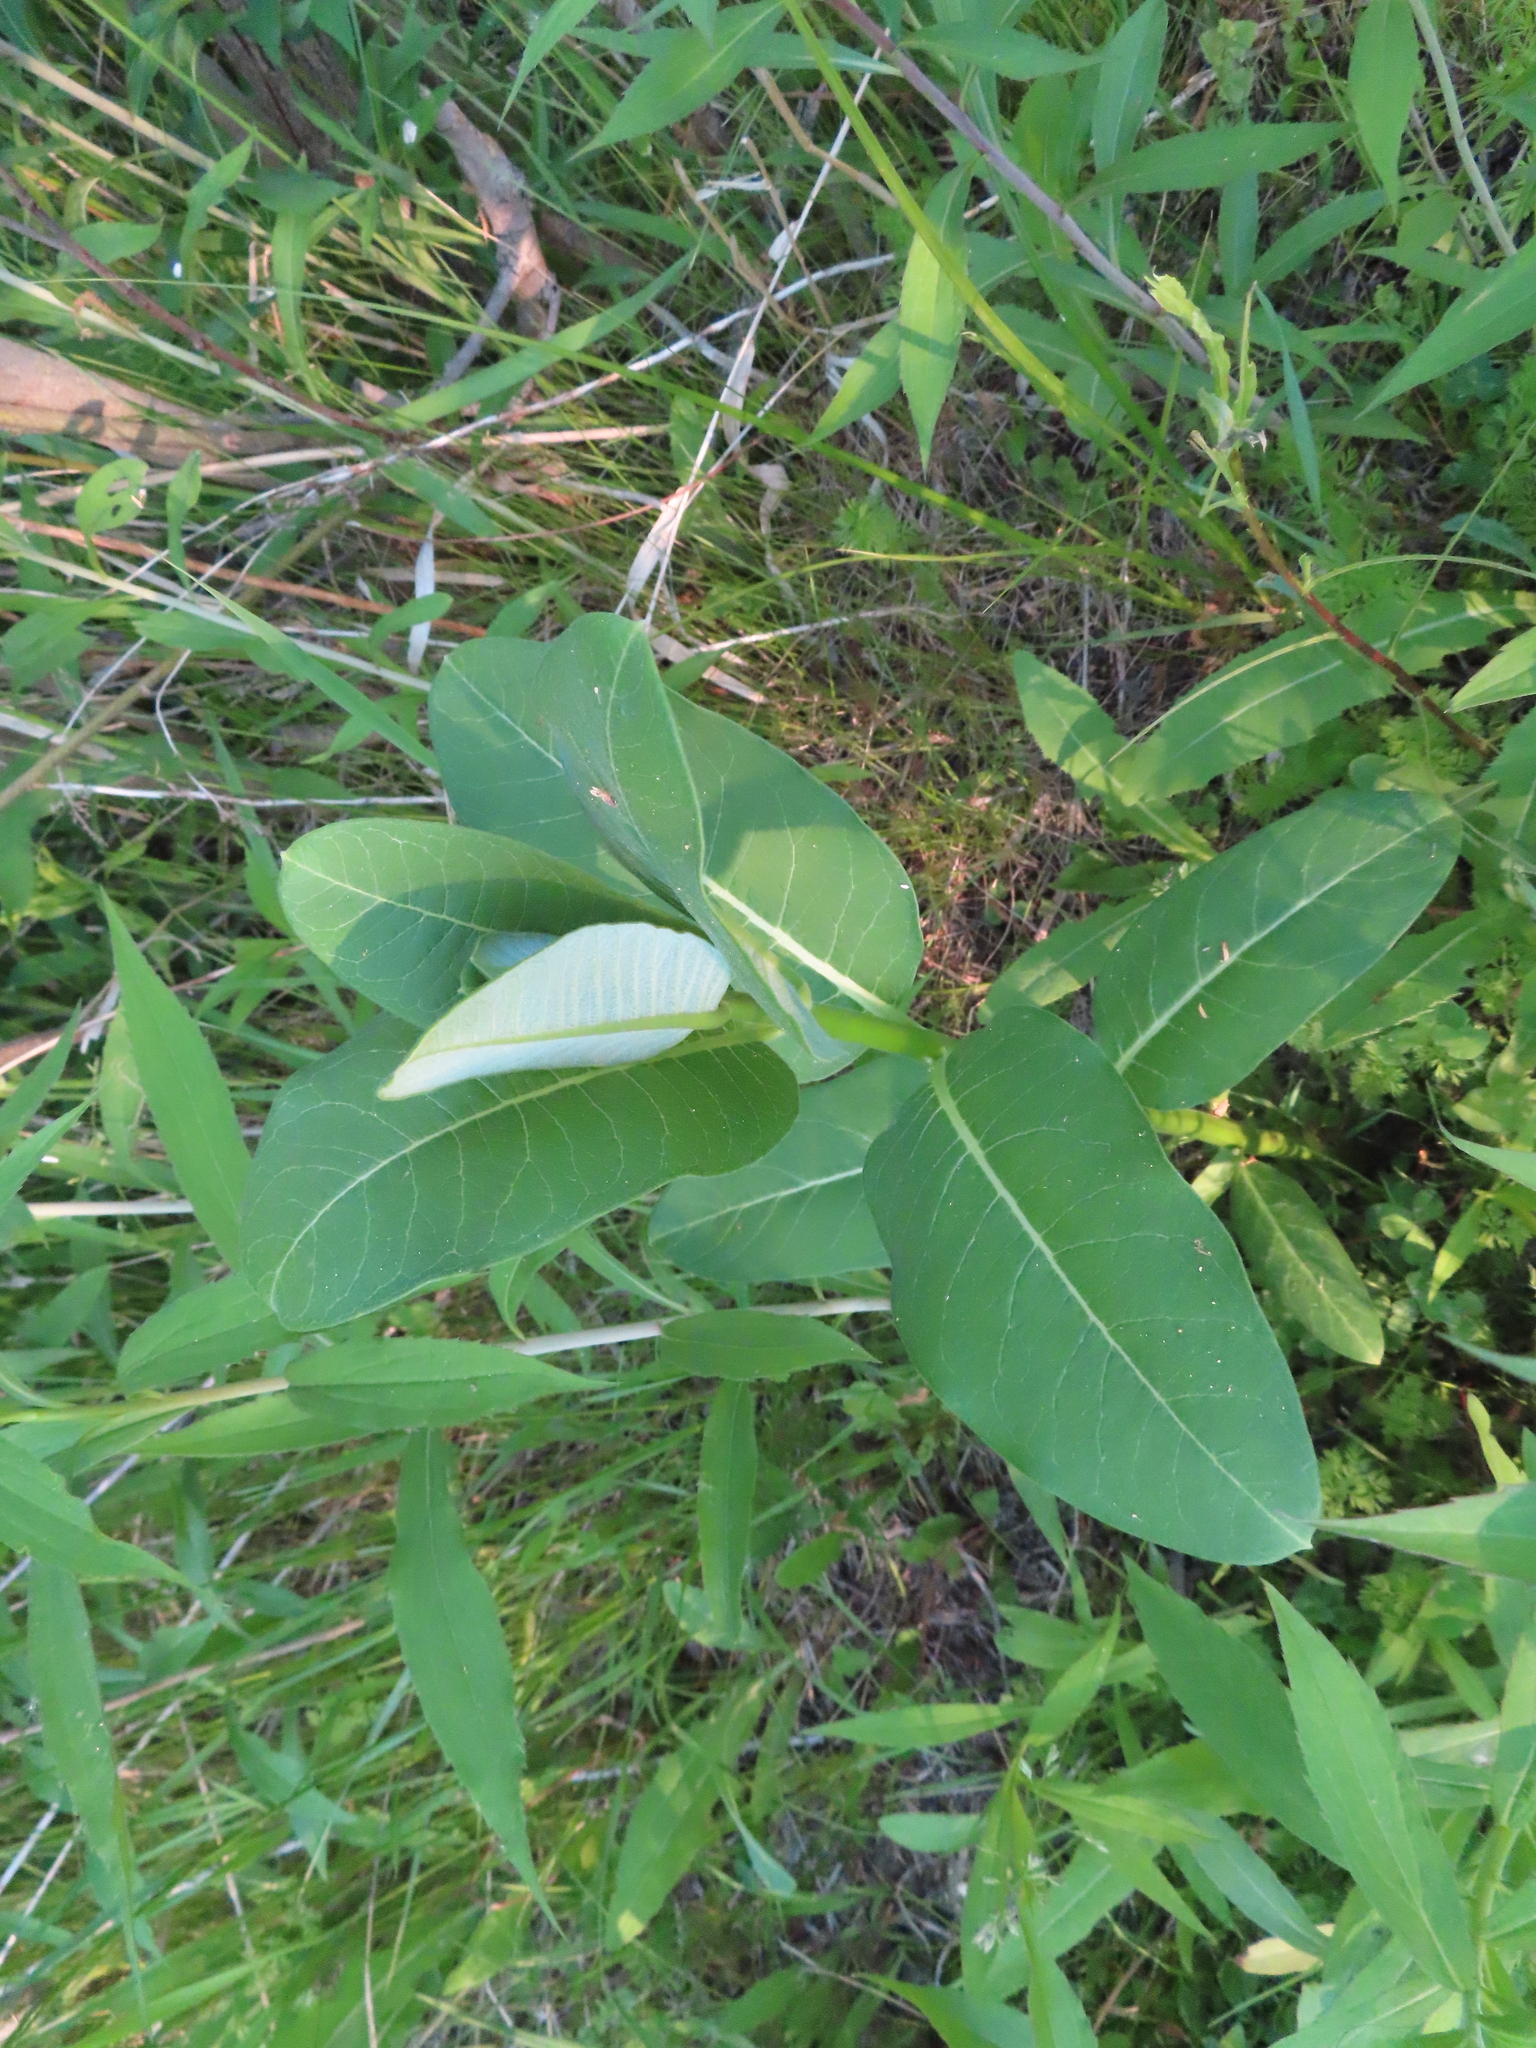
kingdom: Plantae
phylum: Tracheophyta
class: Magnoliopsida
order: Gentianales
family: Apocynaceae
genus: Asclepias
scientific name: Asclepias syriaca
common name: Common milkweed
